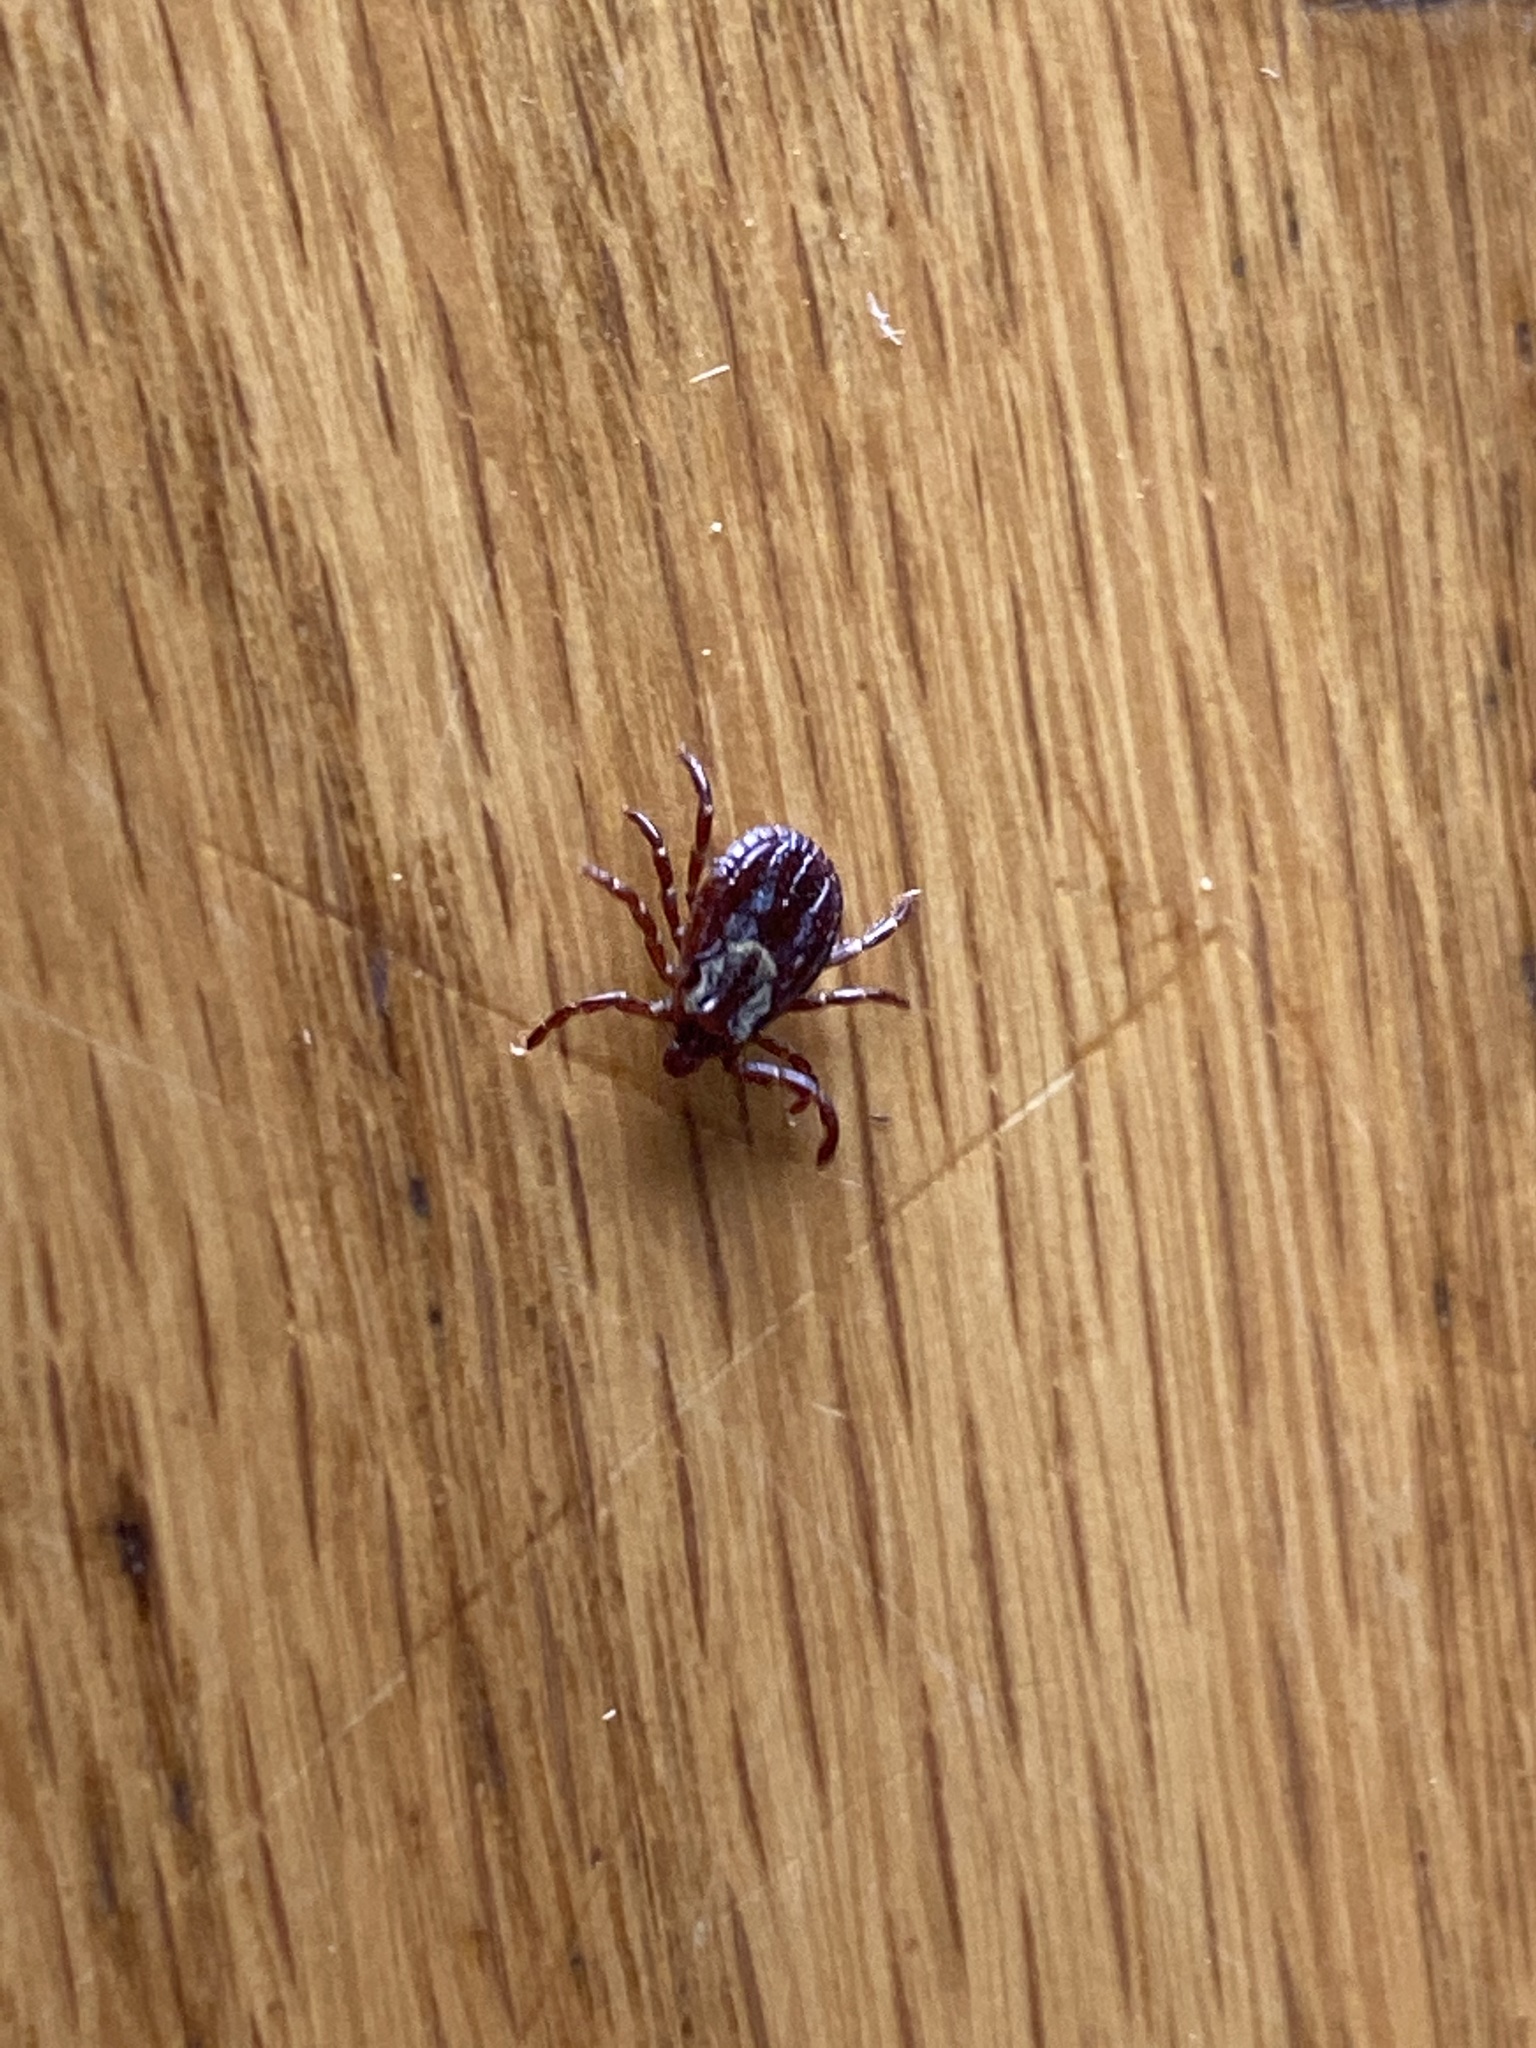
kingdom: Animalia
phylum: Arthropoda
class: Arachnida
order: Ixodida
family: Ixodidae
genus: Dermacentor
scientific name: Dermacentor variabilis
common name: American dog tick
